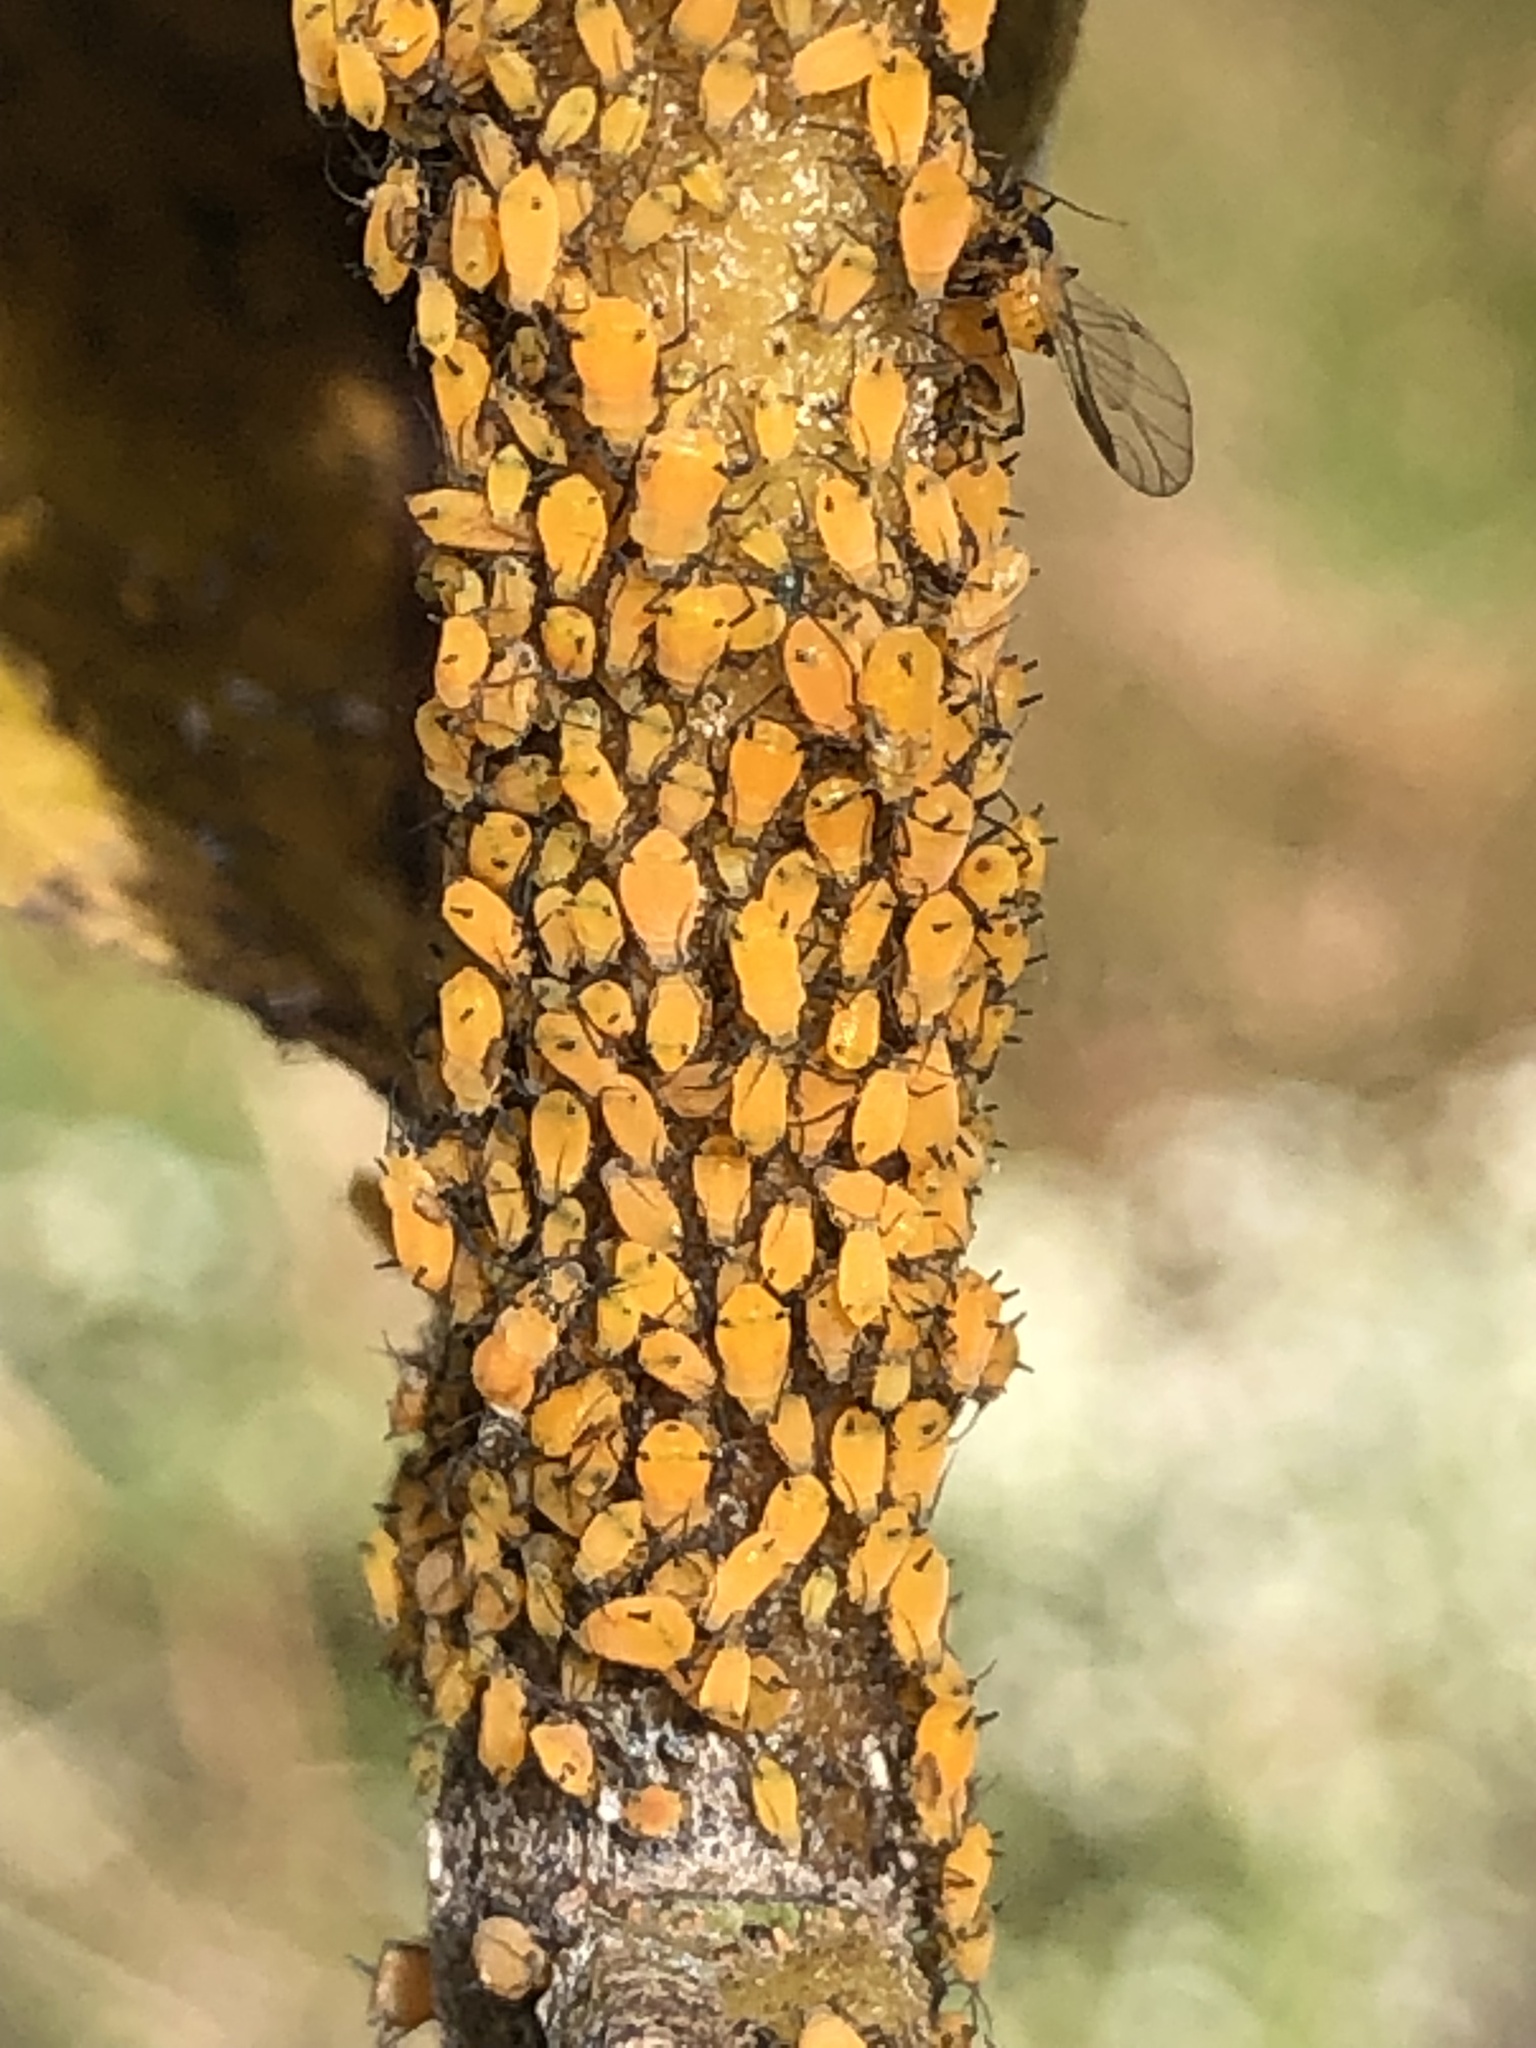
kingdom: Animalia
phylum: Arthropoda
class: Insecta
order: Hemiptera
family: Aphididae
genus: Aphis
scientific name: Aphis nerii
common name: Oleander aphid
